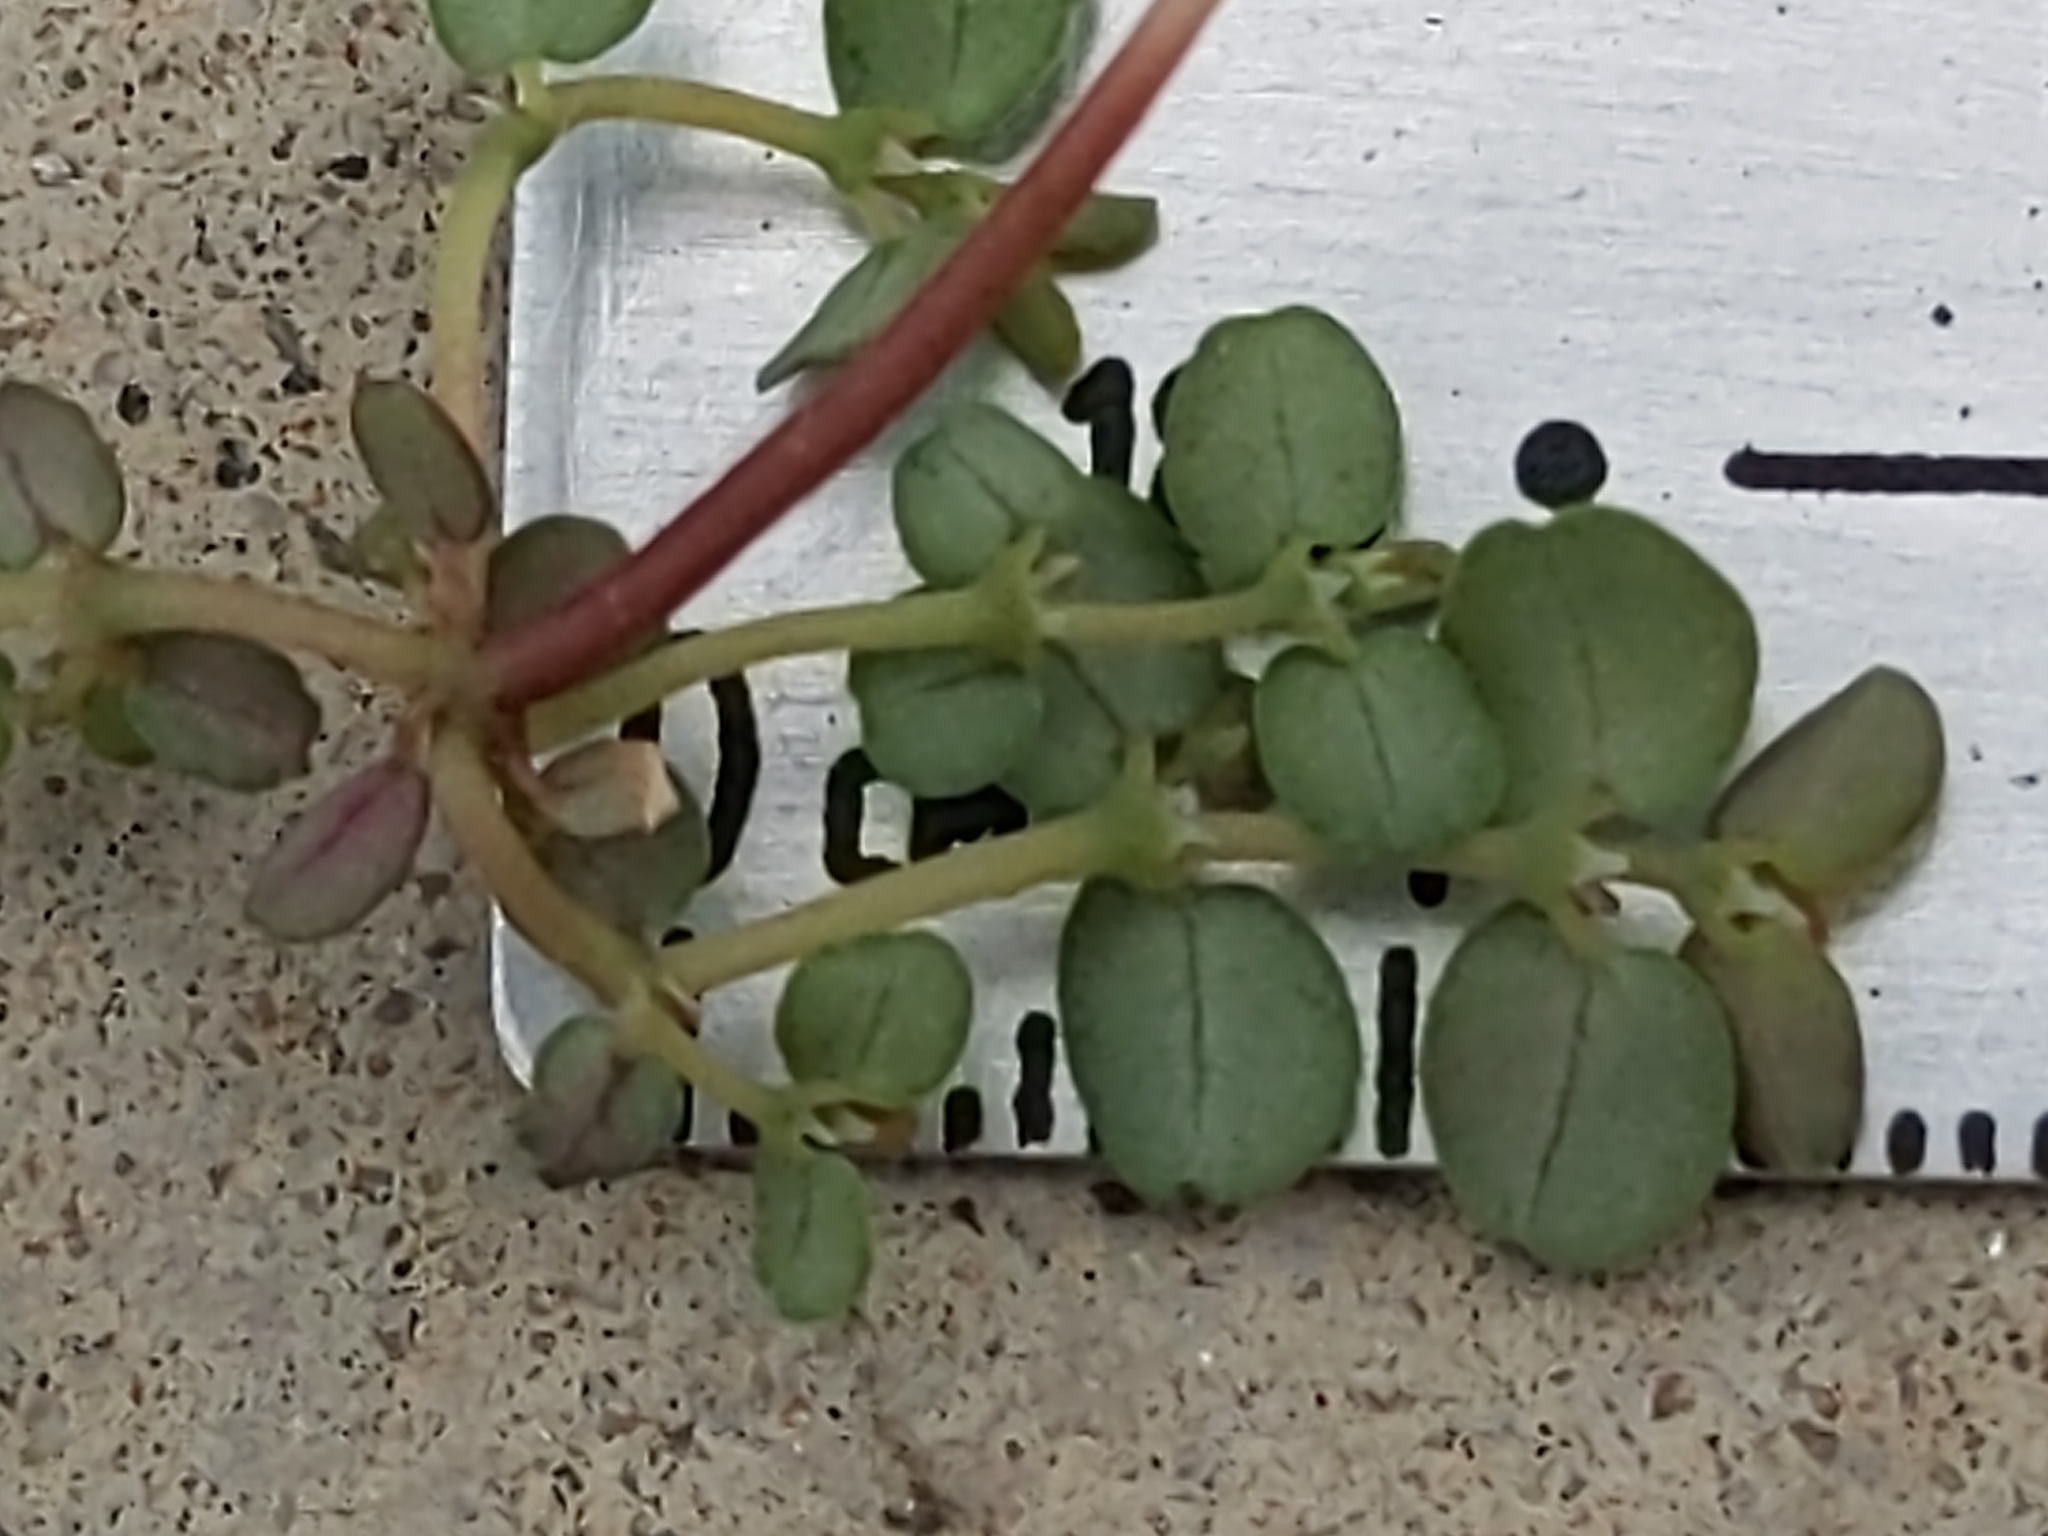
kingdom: Plantae
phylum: Tracheophyta
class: Magnoliopsida
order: Malpighiales
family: Euphorbiaceae
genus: Euphorbia
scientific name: Euphorbia polycarpa
